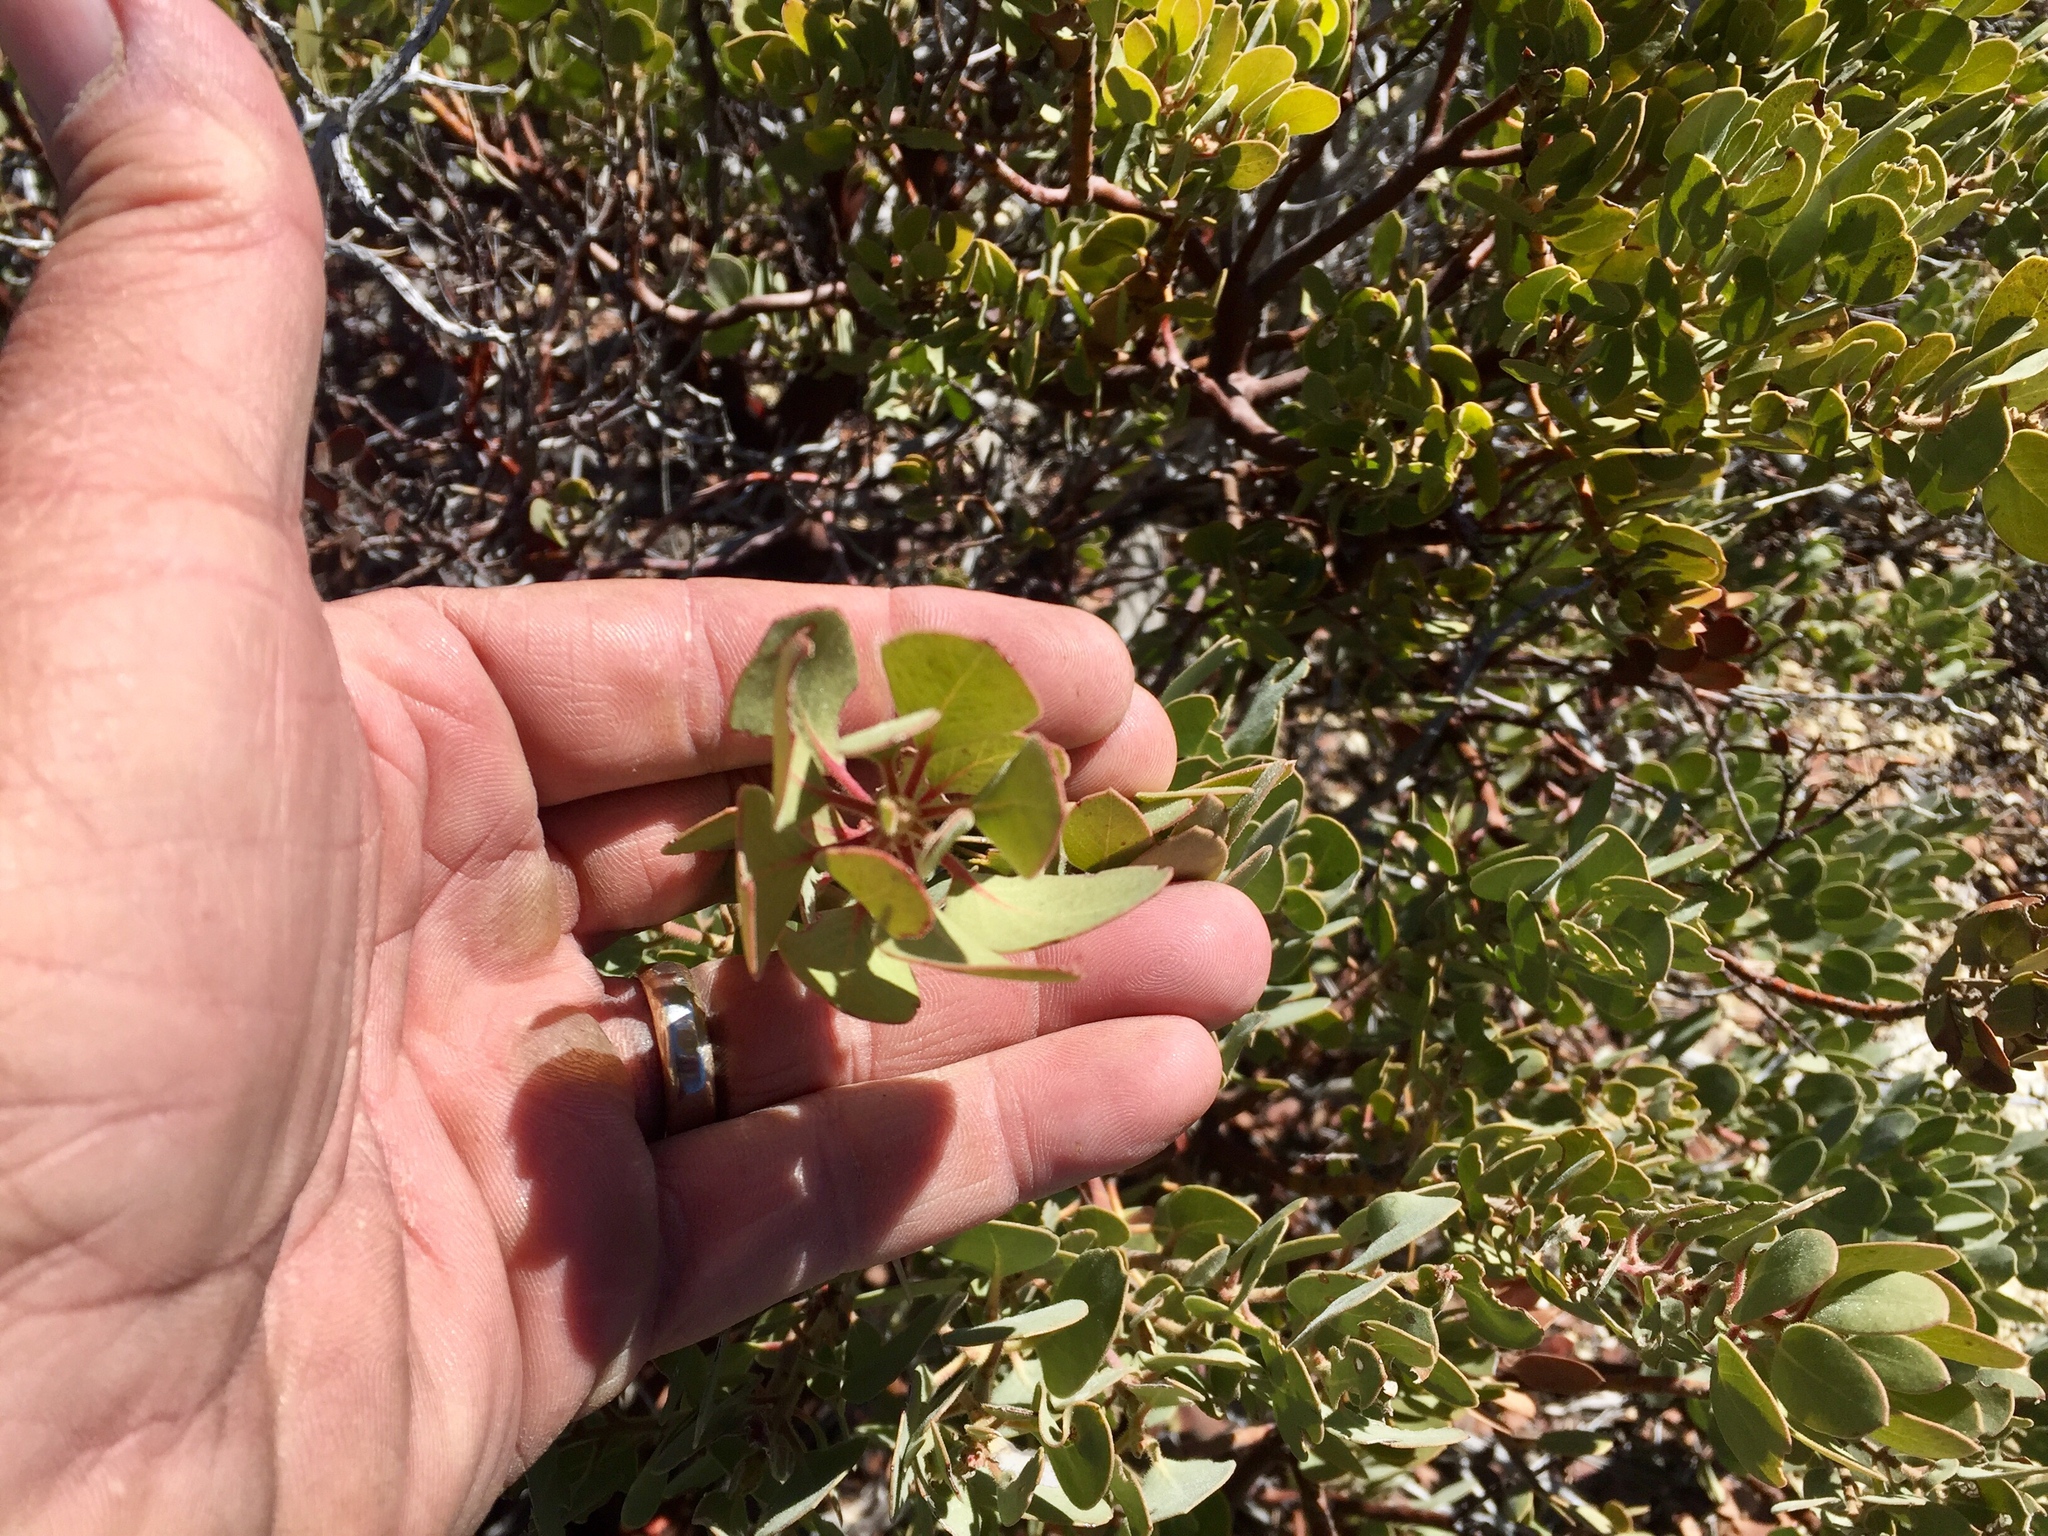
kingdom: Plantae
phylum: Tracheophyta
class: Magnoliopsida
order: Ericales
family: Ericaceae
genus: Arctostaphylos
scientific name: Arctostaphylos pringlei
